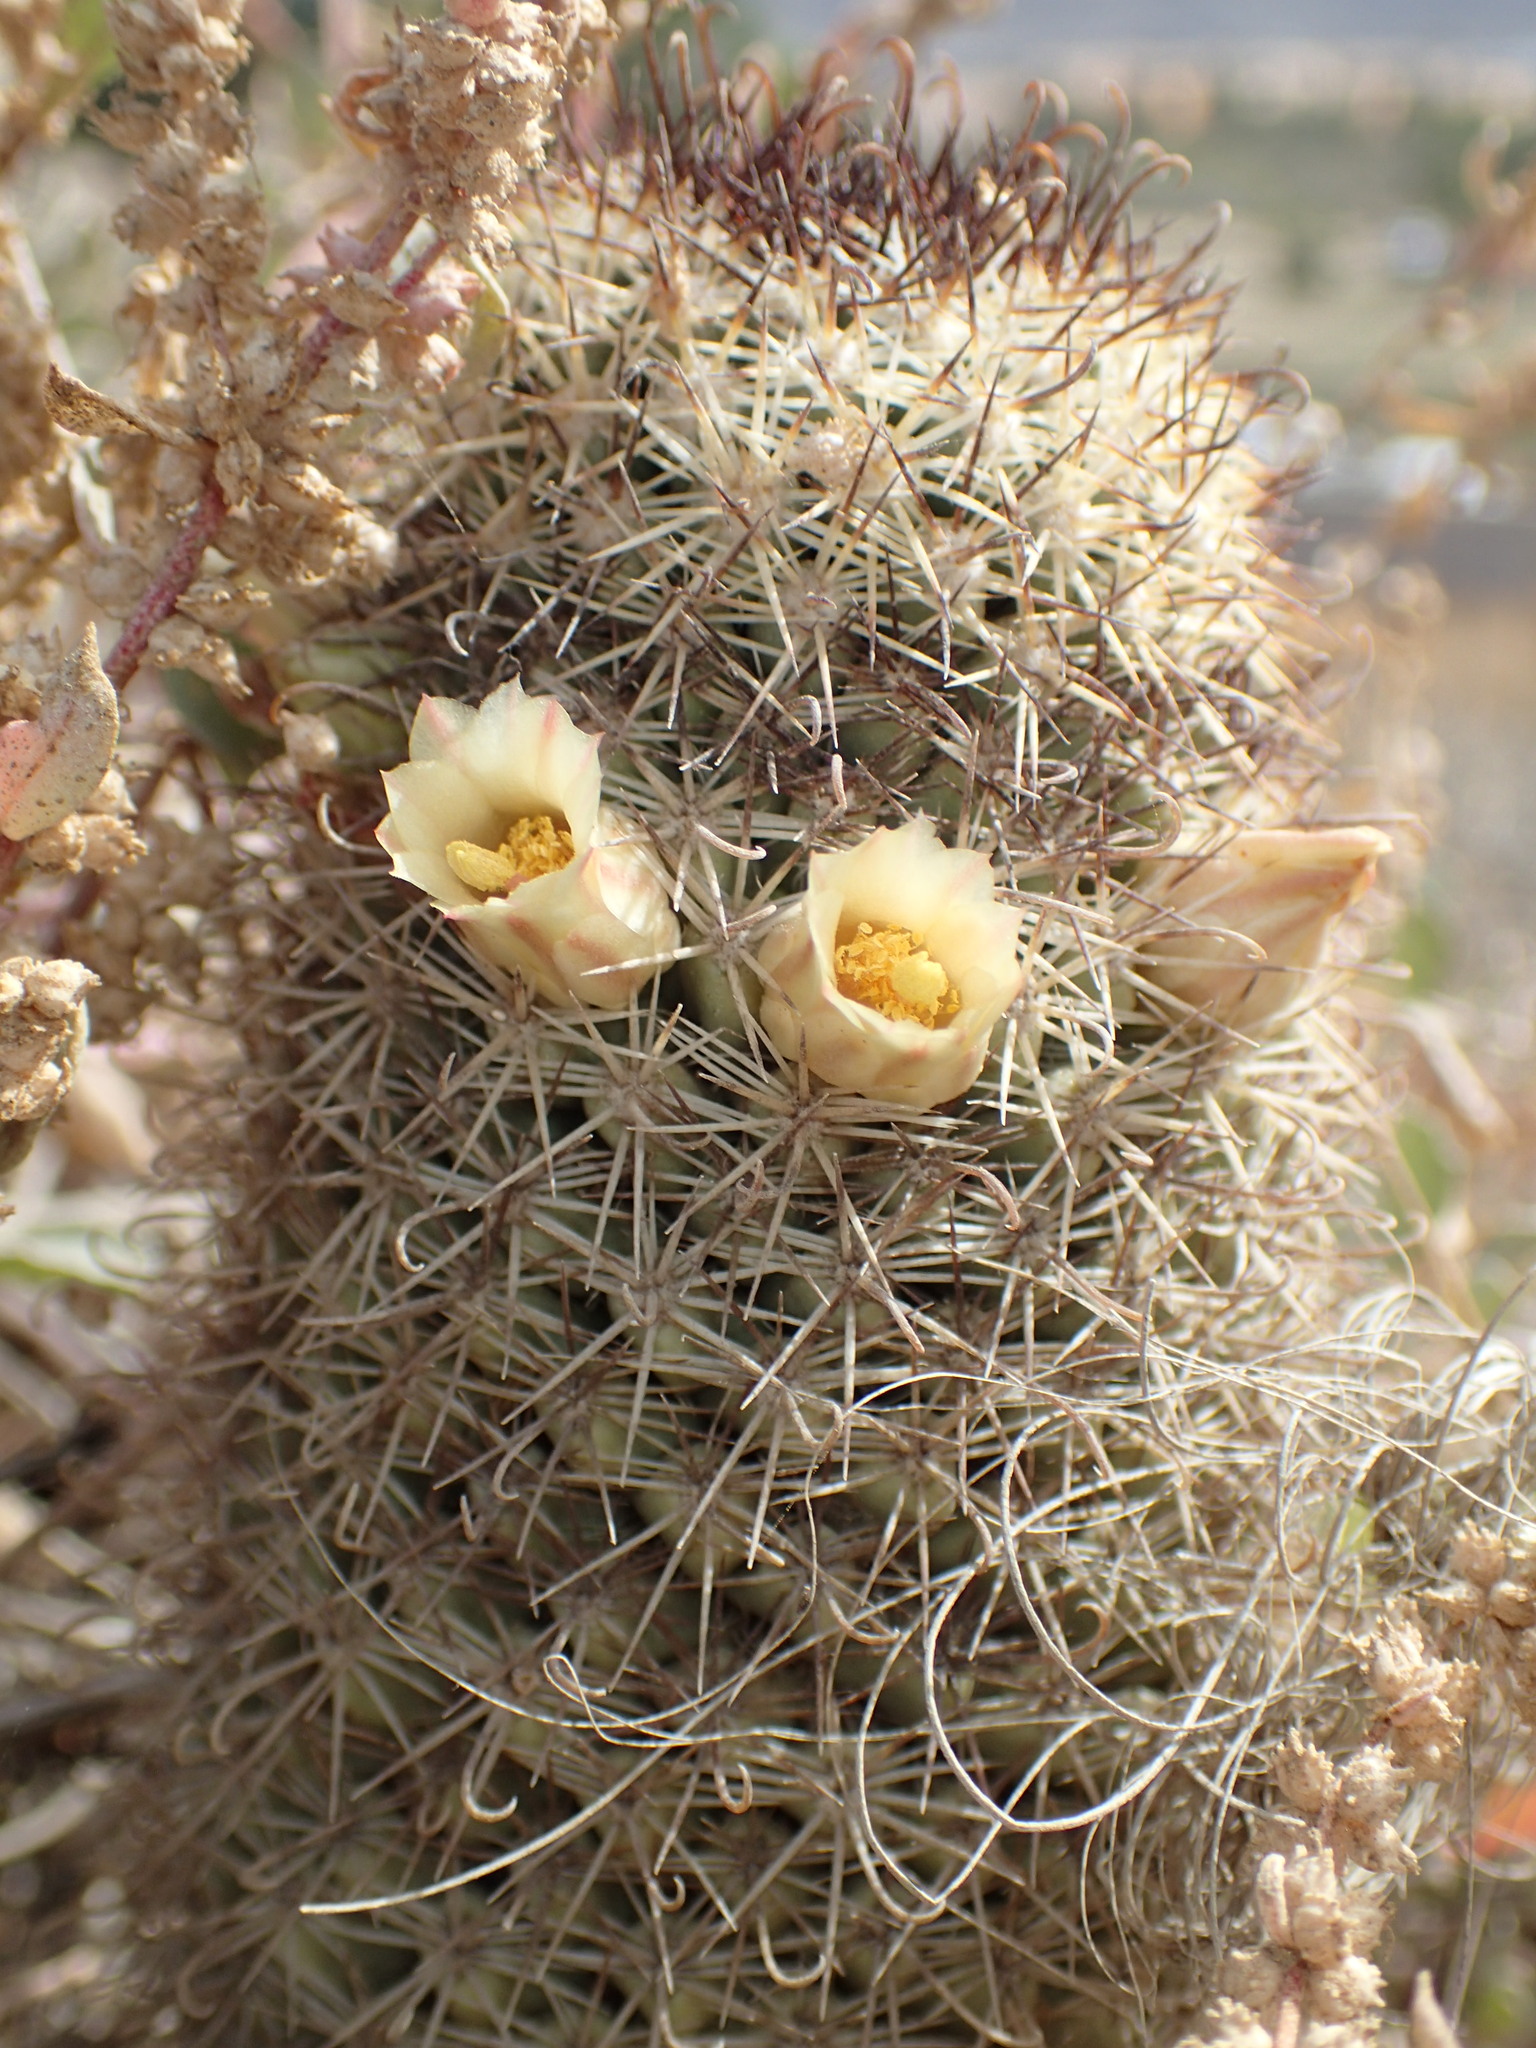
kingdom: Plantae
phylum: Tracheophyta
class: Magnoliopsida
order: Caryophyllales
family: Cactaceae
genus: Cochemiea
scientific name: Cochemiea armillata
